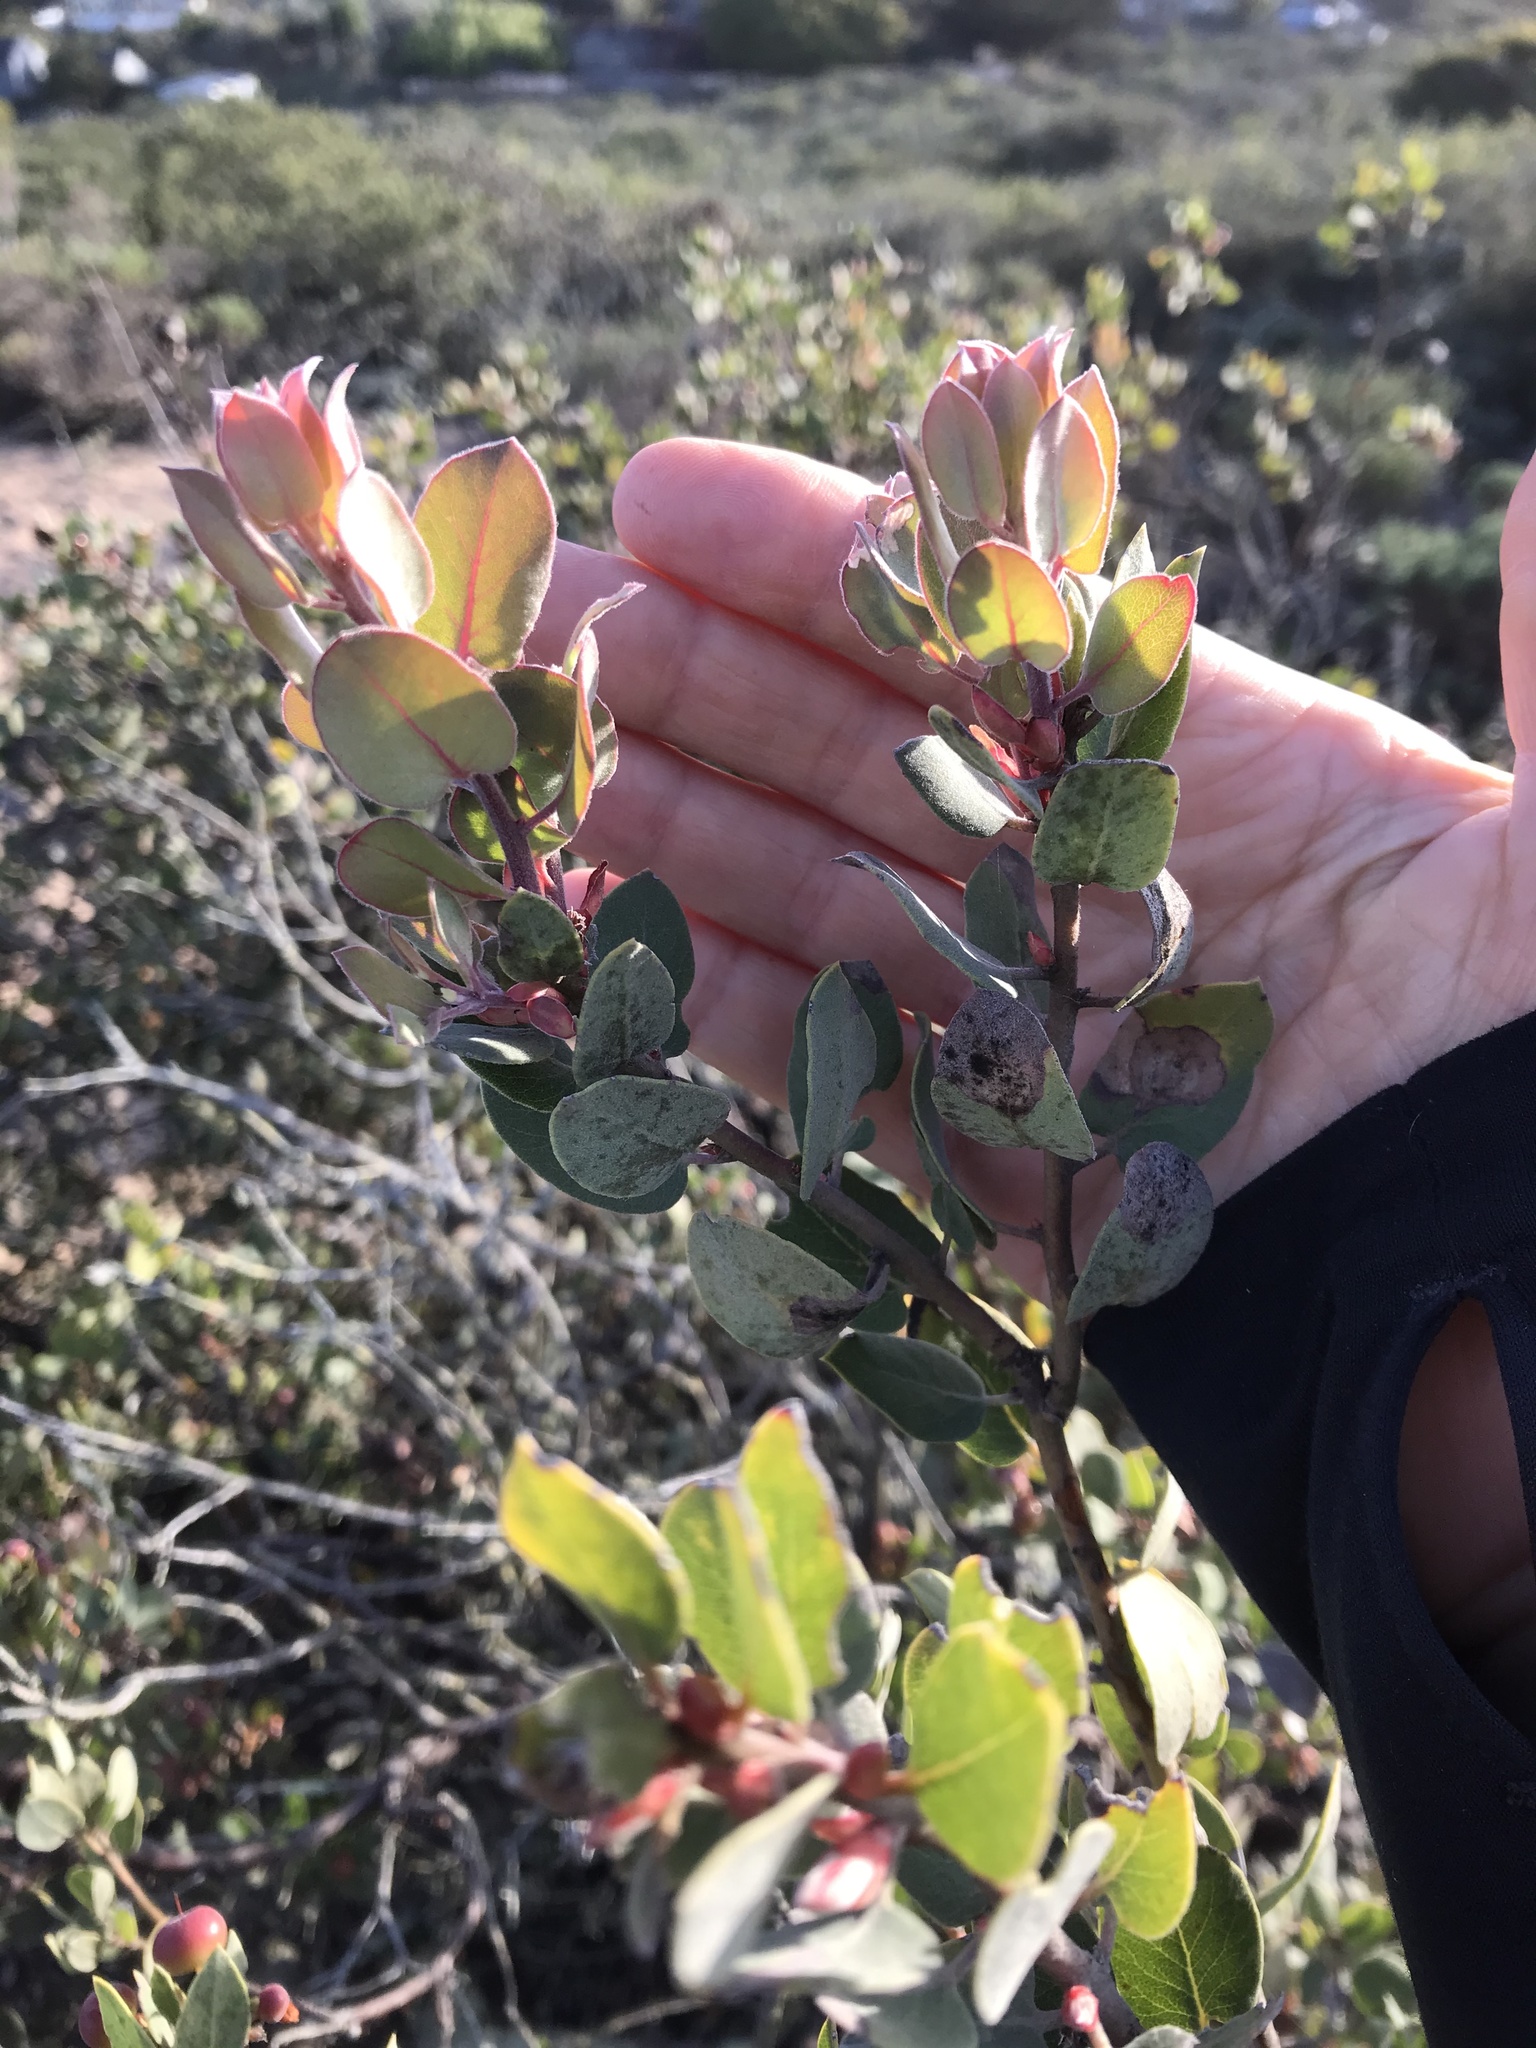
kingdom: Plantae
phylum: Tracheophyta
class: Magnoliopsida
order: Ericales
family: Ericaceae
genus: Arctostaphylos
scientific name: Arctostaphylos morroensis
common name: Morro manzanita
